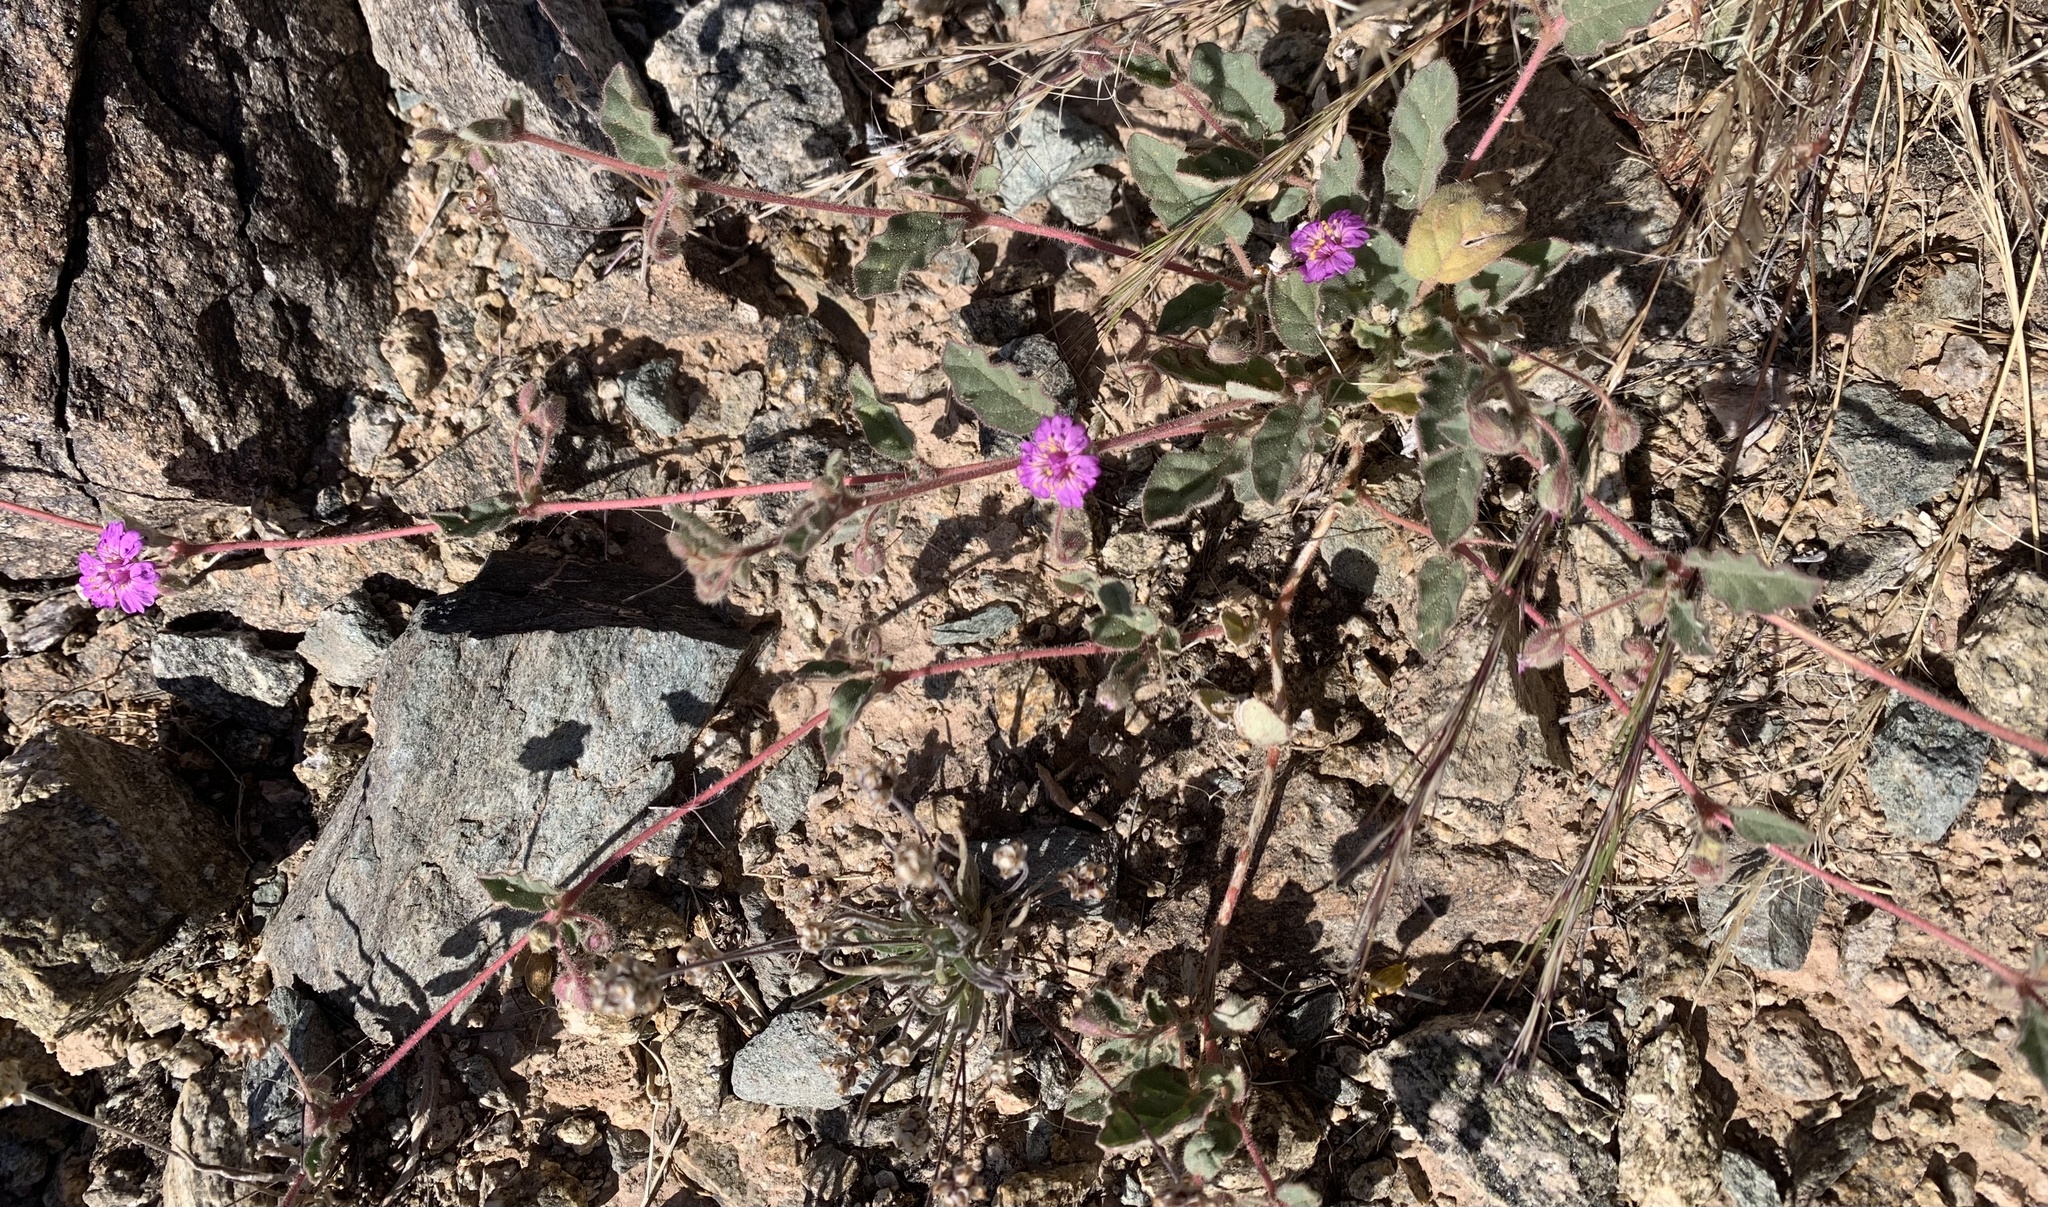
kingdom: Plantae
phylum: Tracheophyta
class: Magnoliopsida
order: Caryophyllales
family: Nyctaginaceae
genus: Allionia
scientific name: Allionia incarnata
